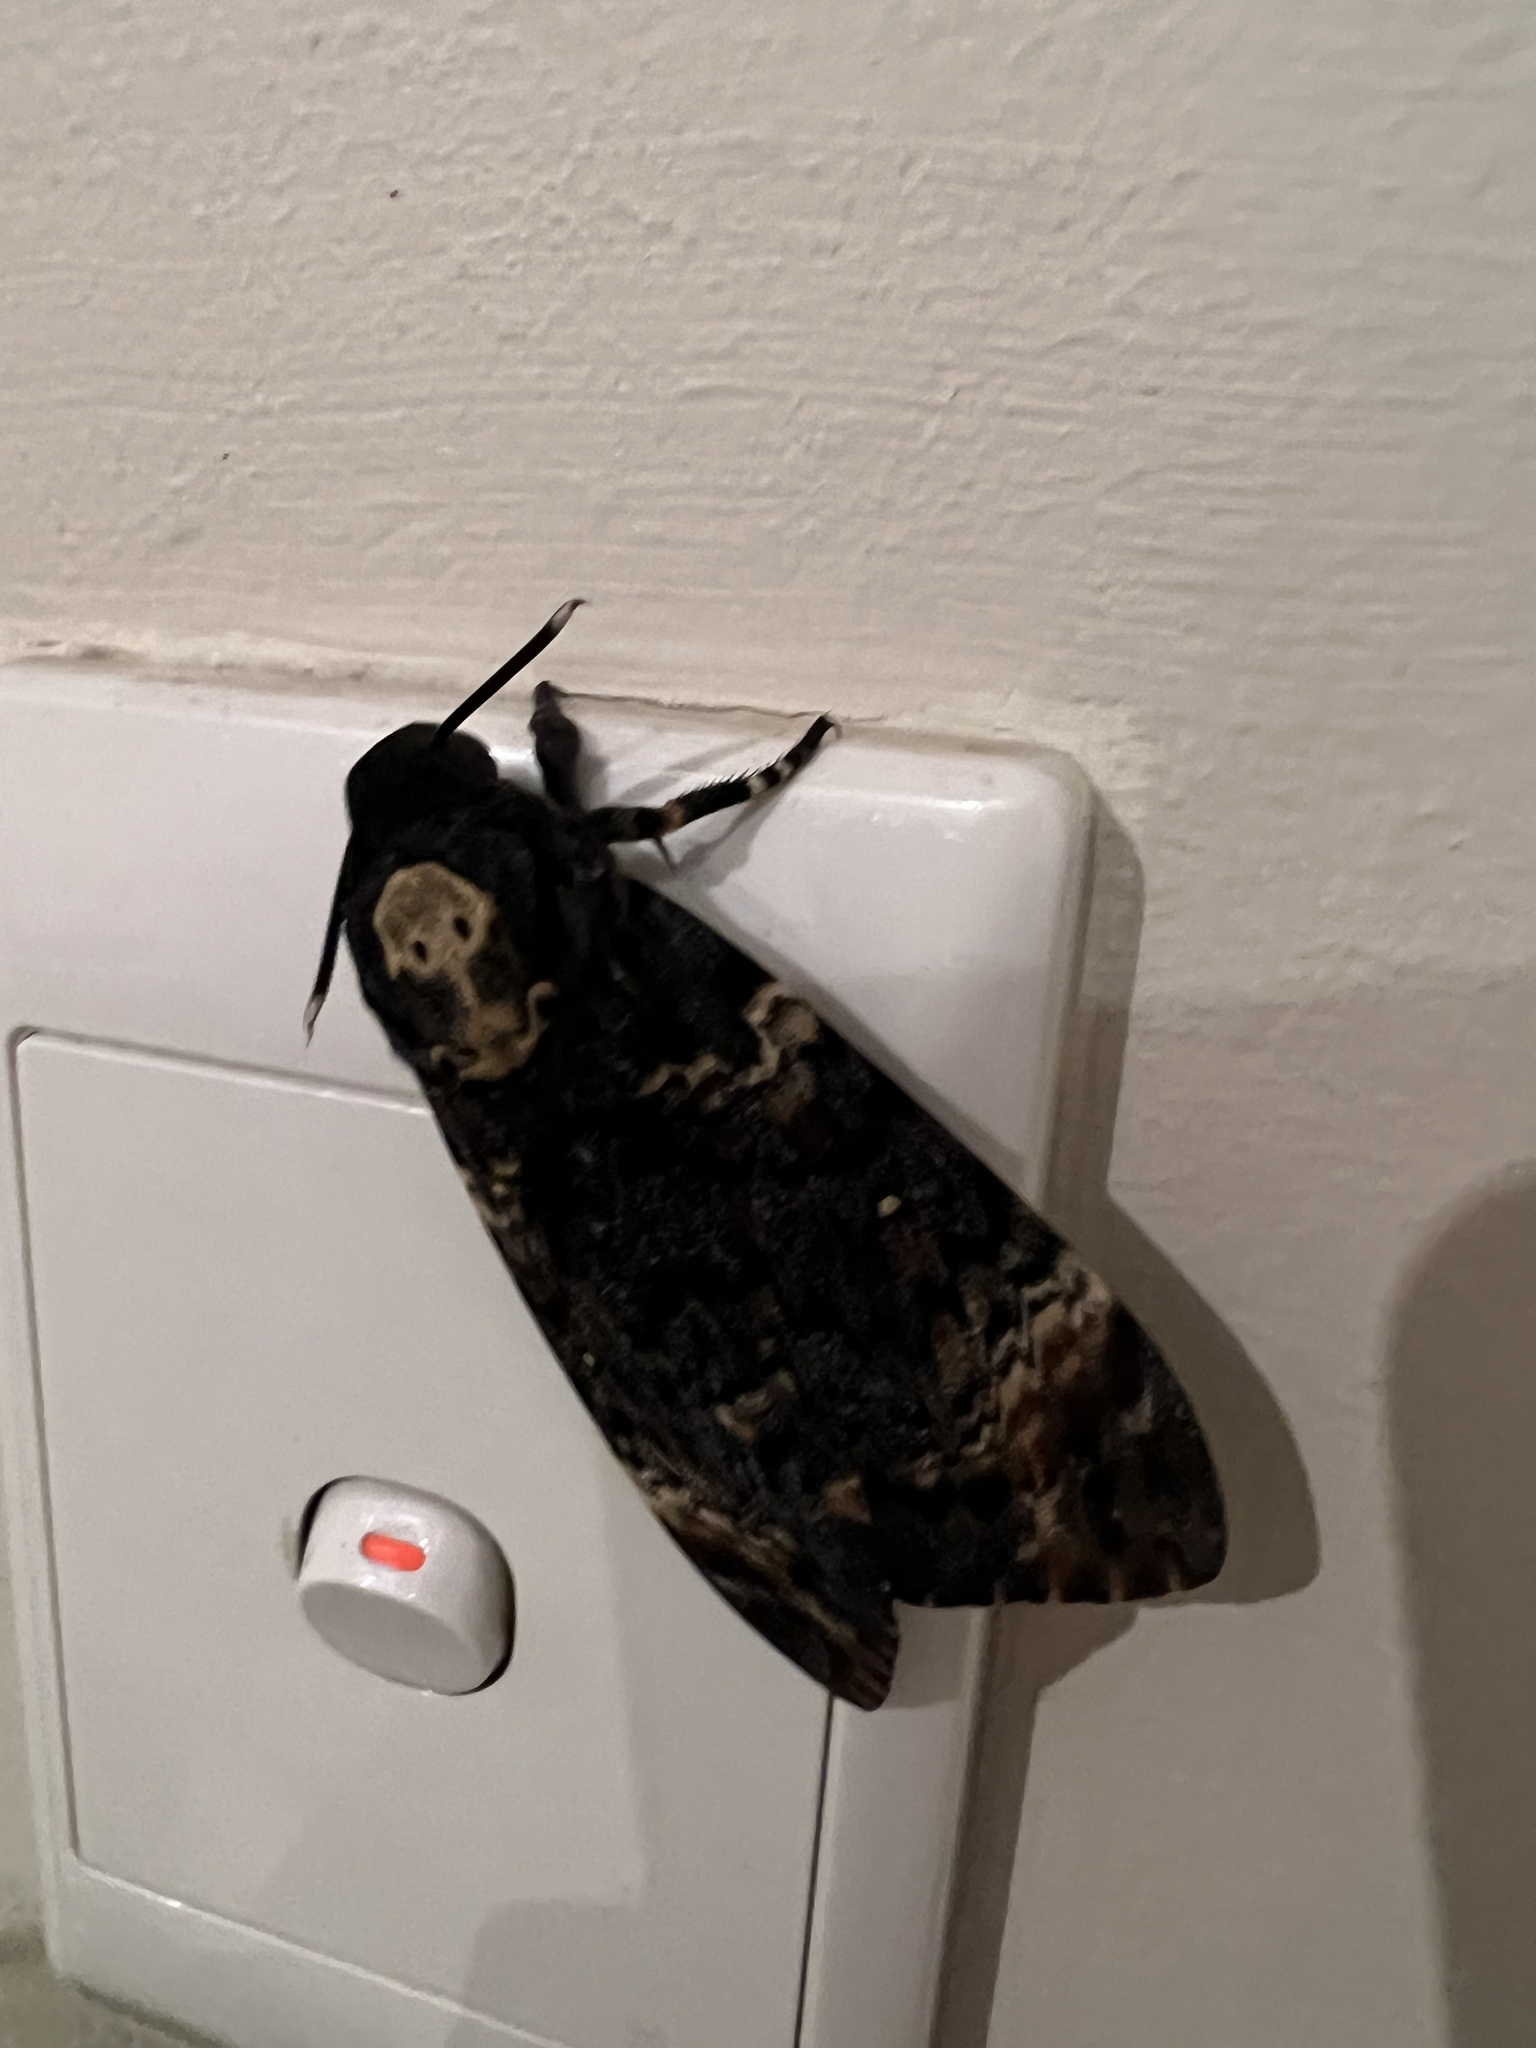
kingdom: Animalia
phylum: Arthropoda
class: Insecta
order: Lepidoptera
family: Sphingidae
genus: Acherontia
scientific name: Acherontia atropos
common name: Death's-head hawk moth
